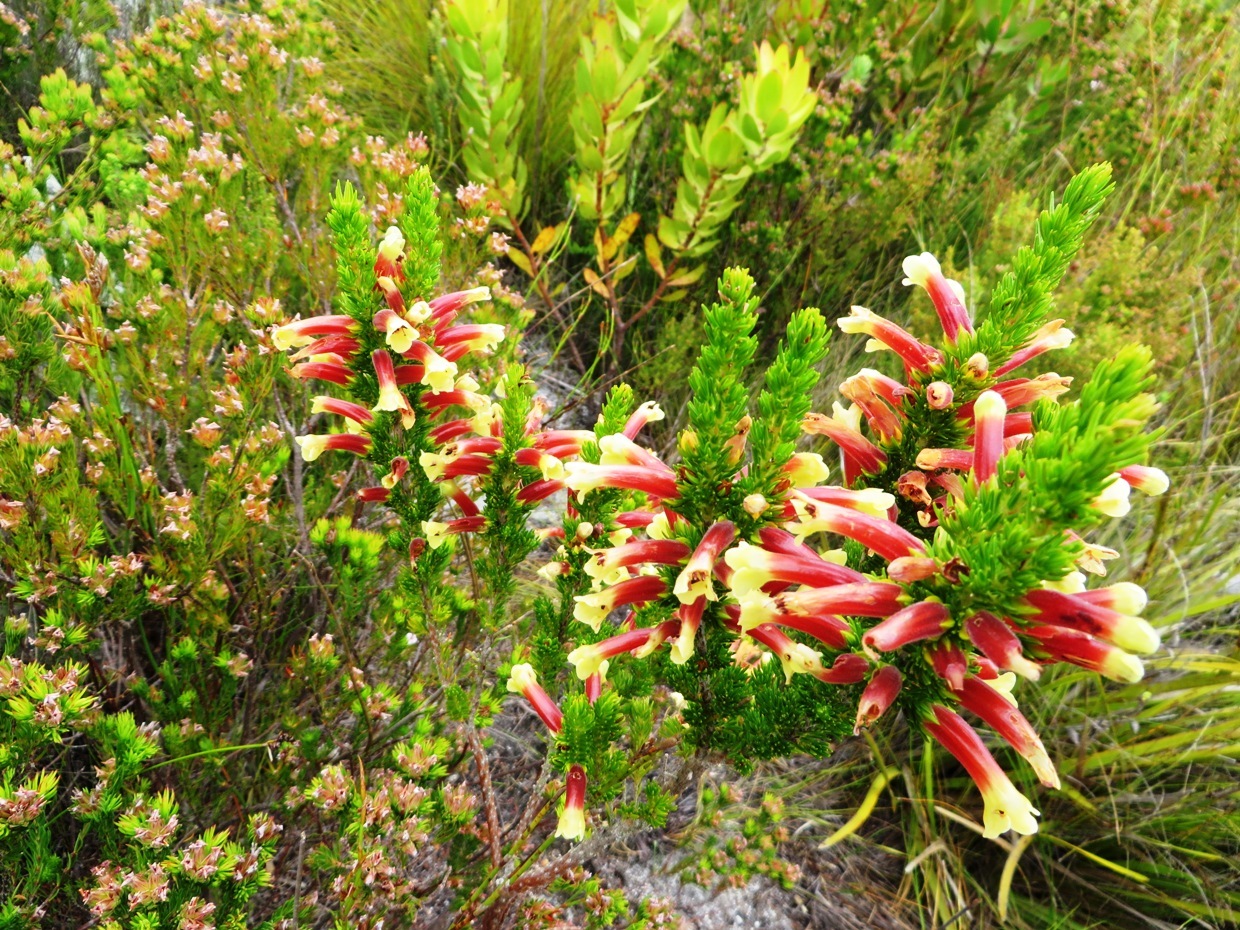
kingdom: Plantae
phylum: Tracheophyta
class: Magnoliopsida
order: Ericales
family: Ericaceae
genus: Erica
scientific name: Erica macowanii
